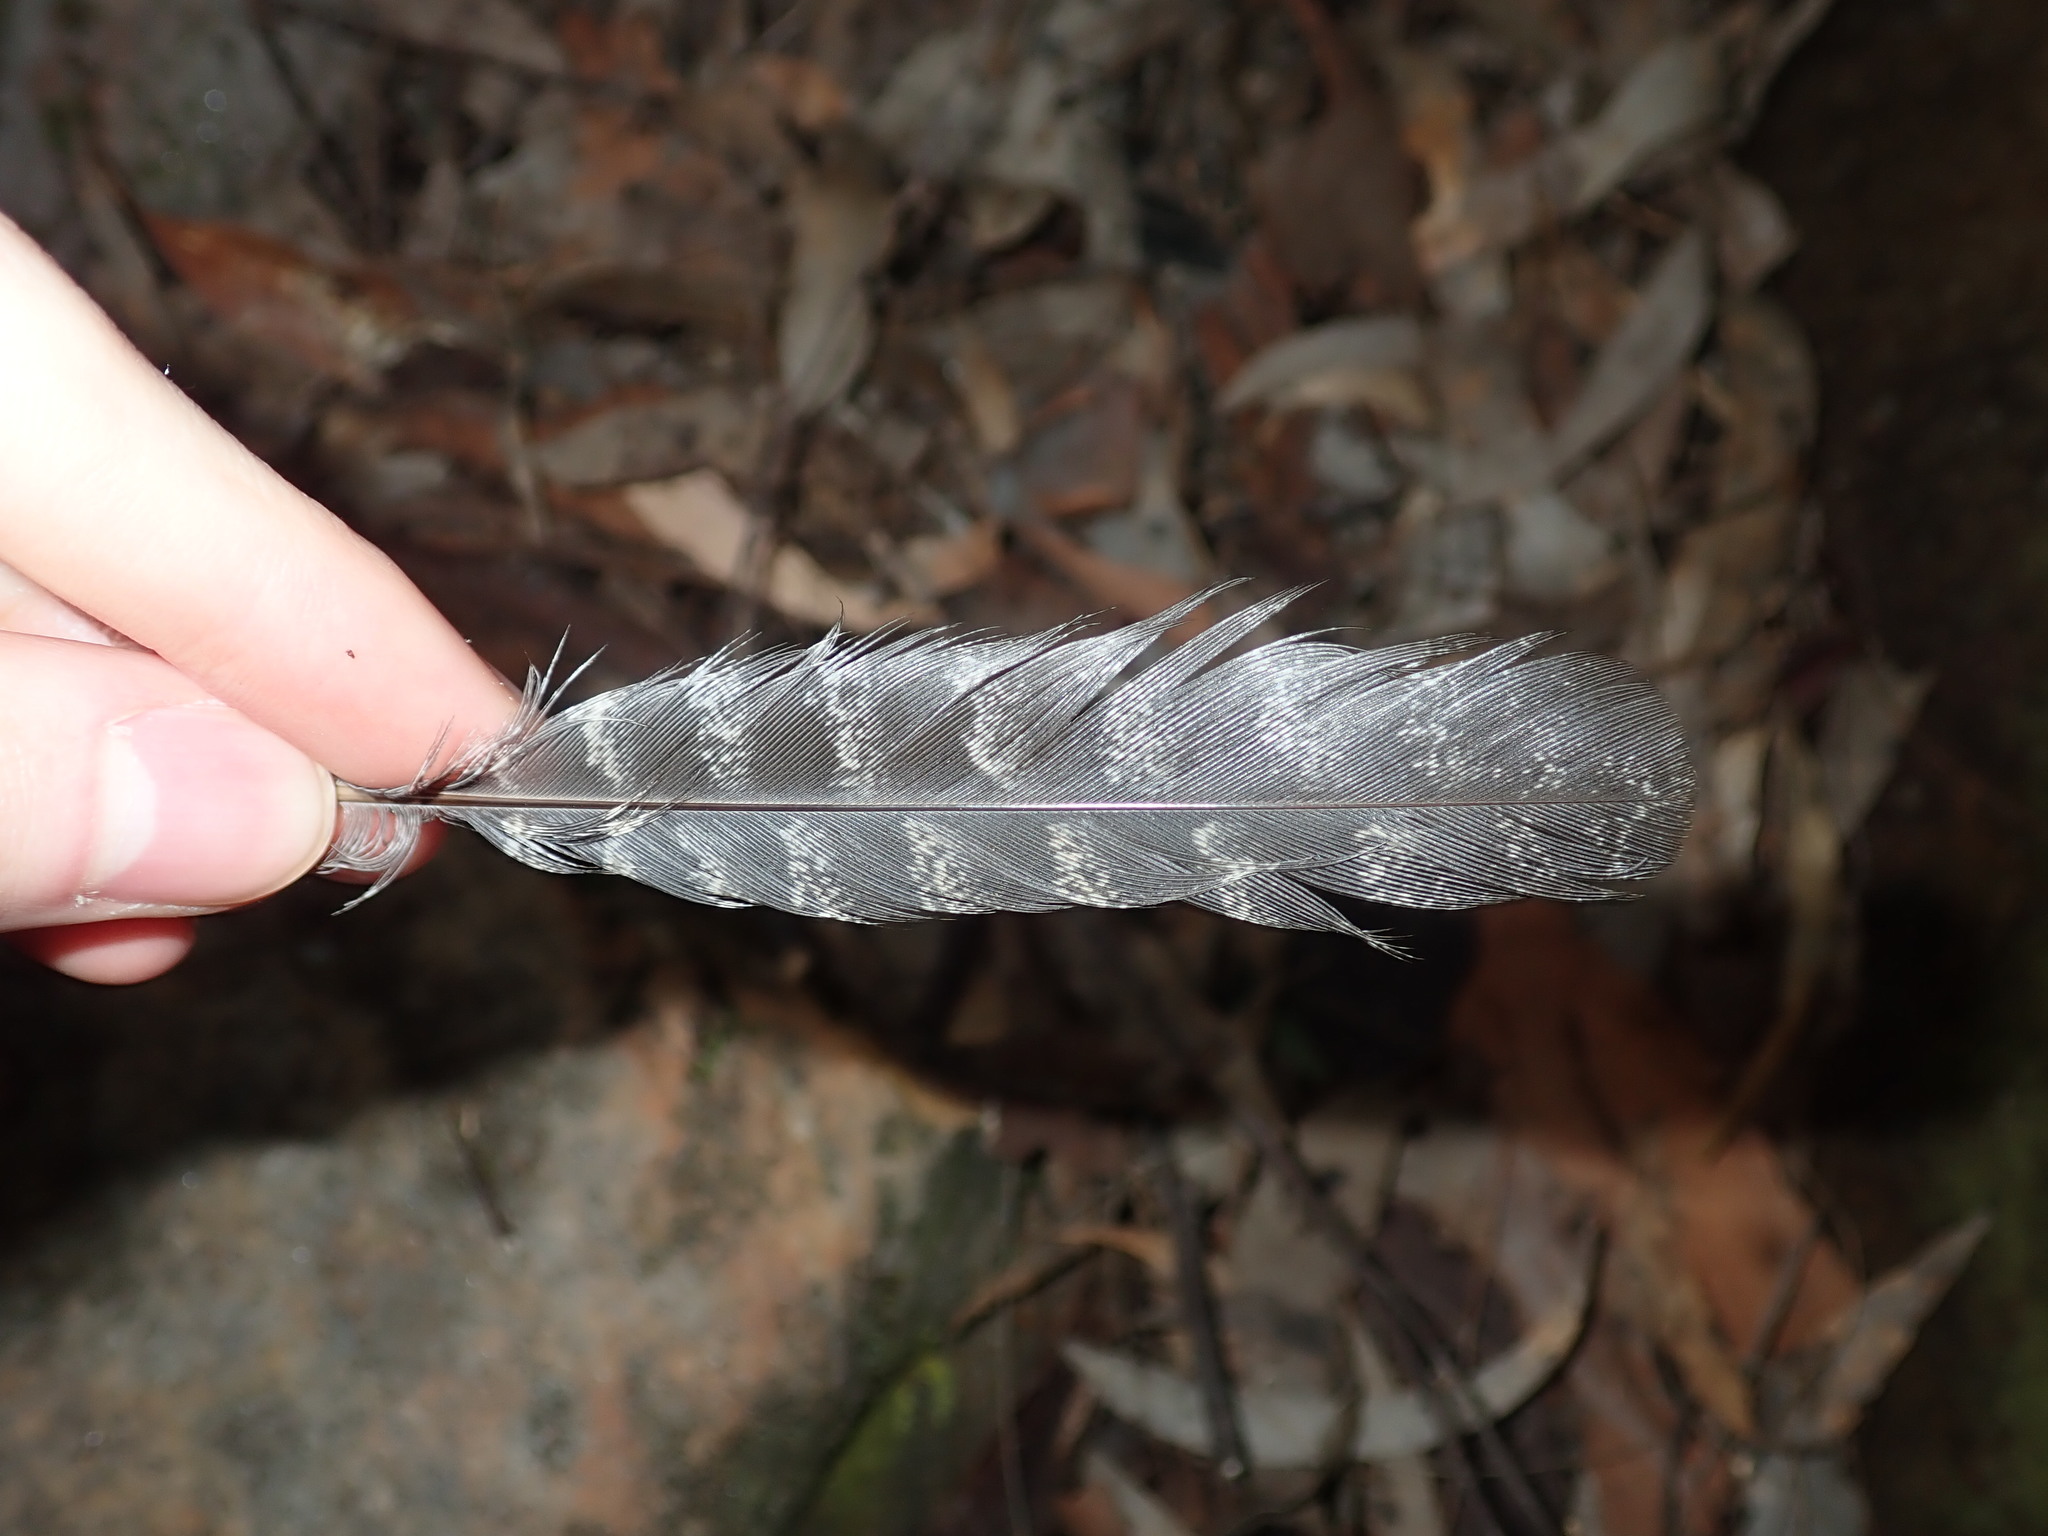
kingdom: Animalia
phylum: Chordata
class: Aves
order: Apodiformes
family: Aegothelidae
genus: Aegotheles
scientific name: Aegotheles cristatus
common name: Australian owlet-nightjar
